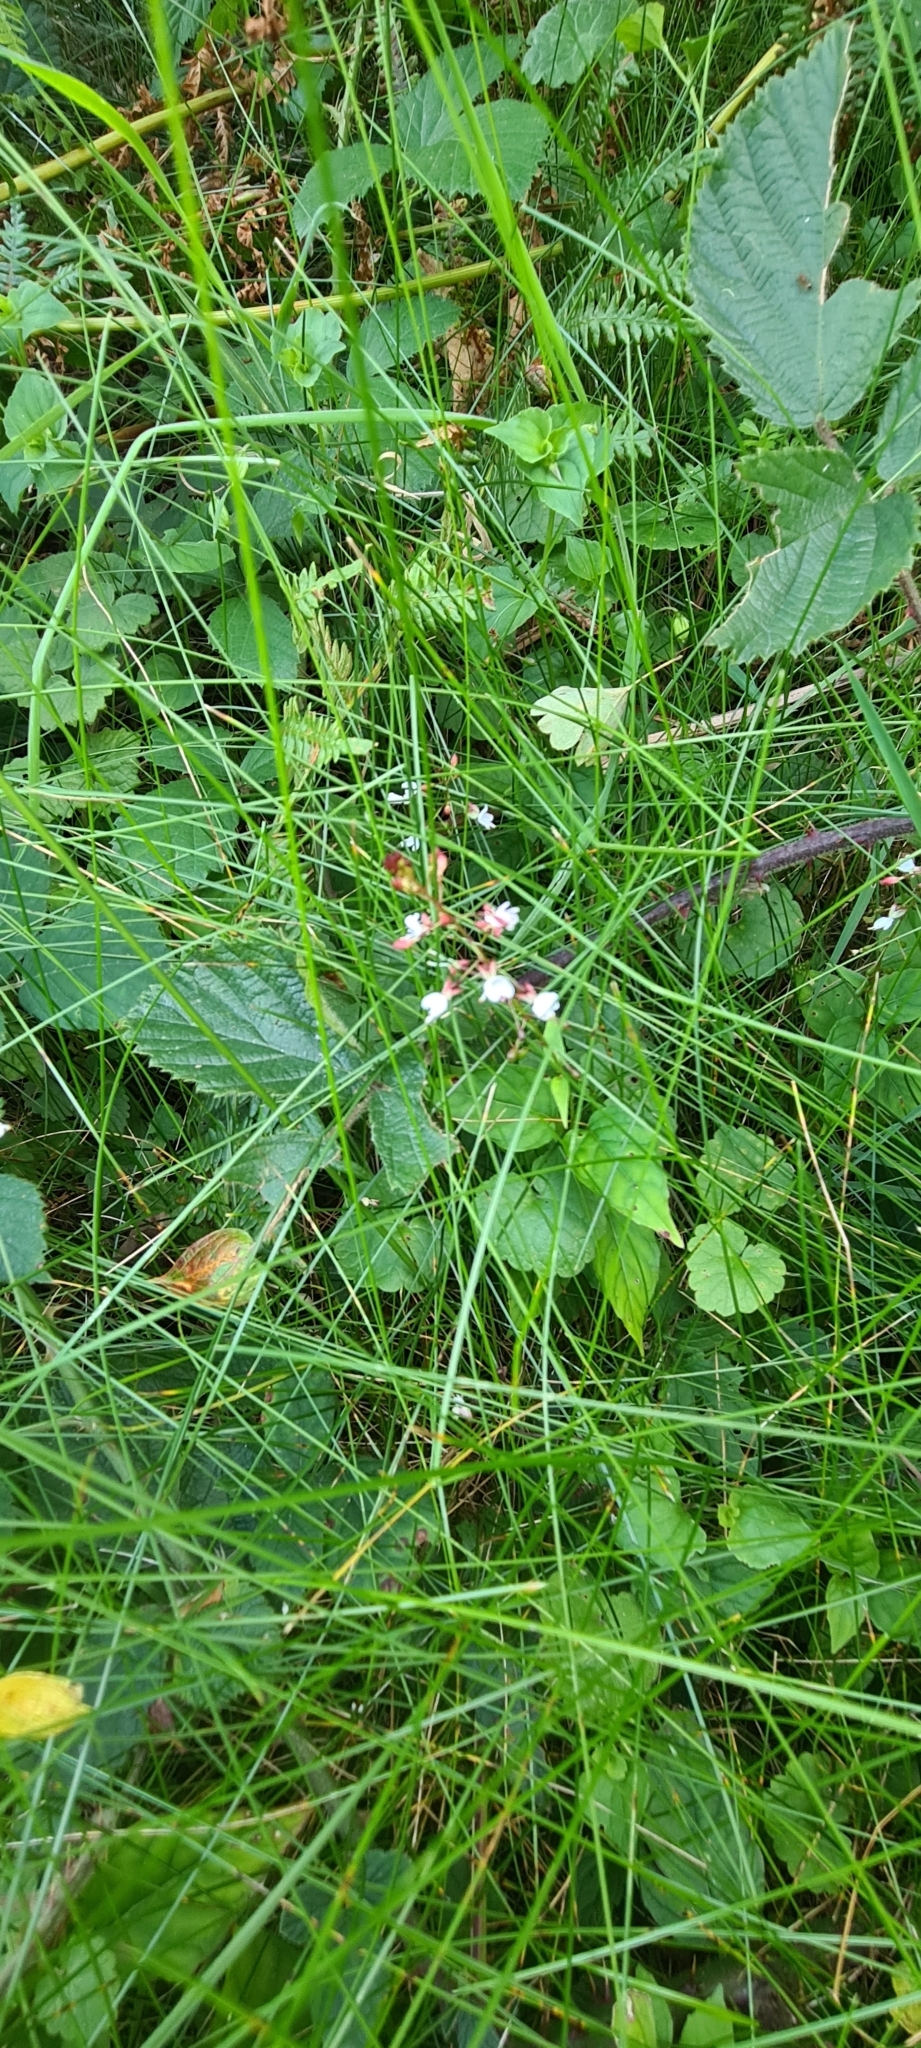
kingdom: Plantae
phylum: Tracheophyta
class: Magnoliopsida
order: Myrtales
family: Onagraceae
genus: Circaea
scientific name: Circaea lutetiana
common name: Enchanter's-nightshade
